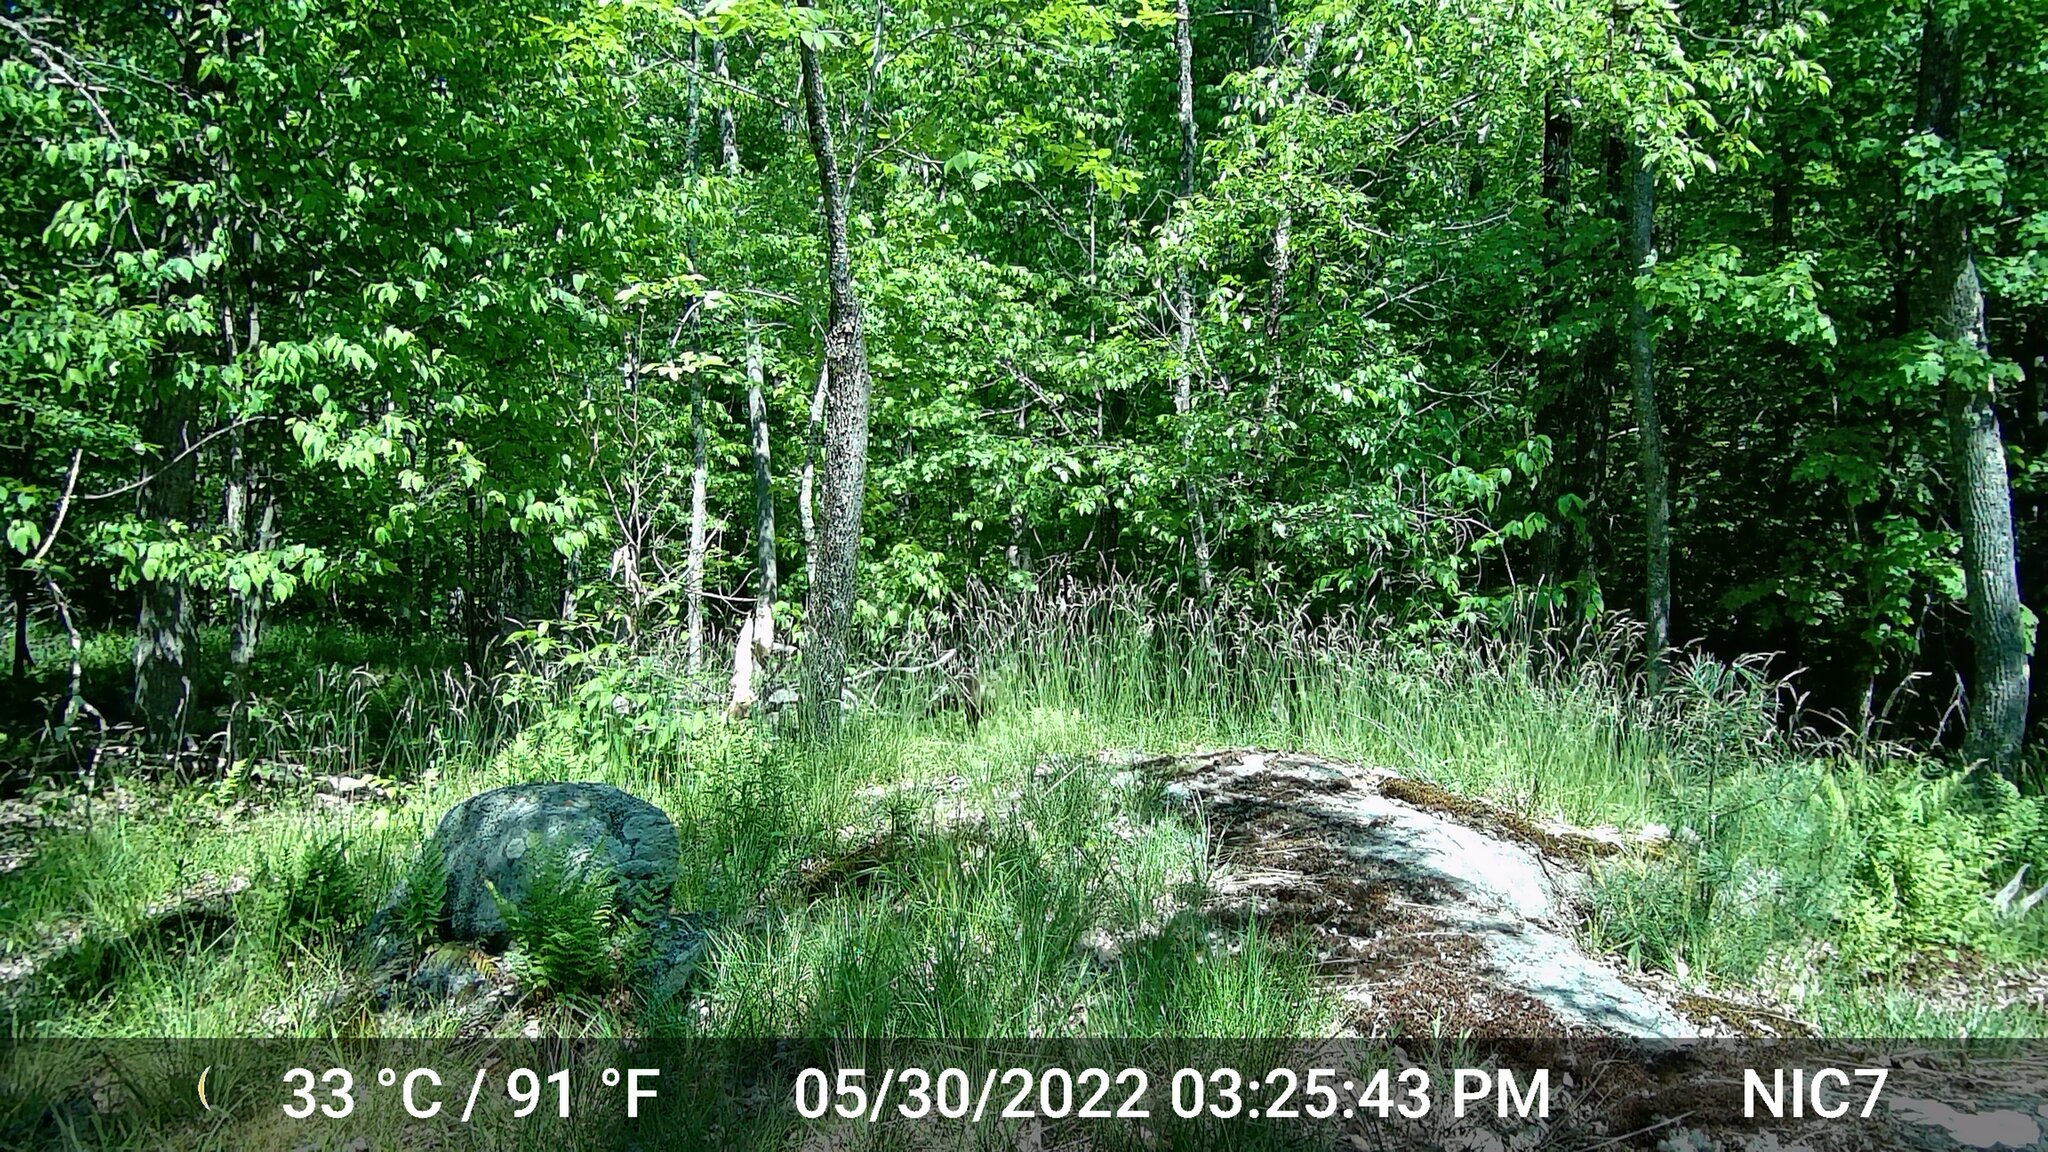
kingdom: Animalia
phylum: Chordata
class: Aves
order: Galliformes
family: Phasianidae
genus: Meleagris
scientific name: Meleagris gallopavo
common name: Wild turkey
